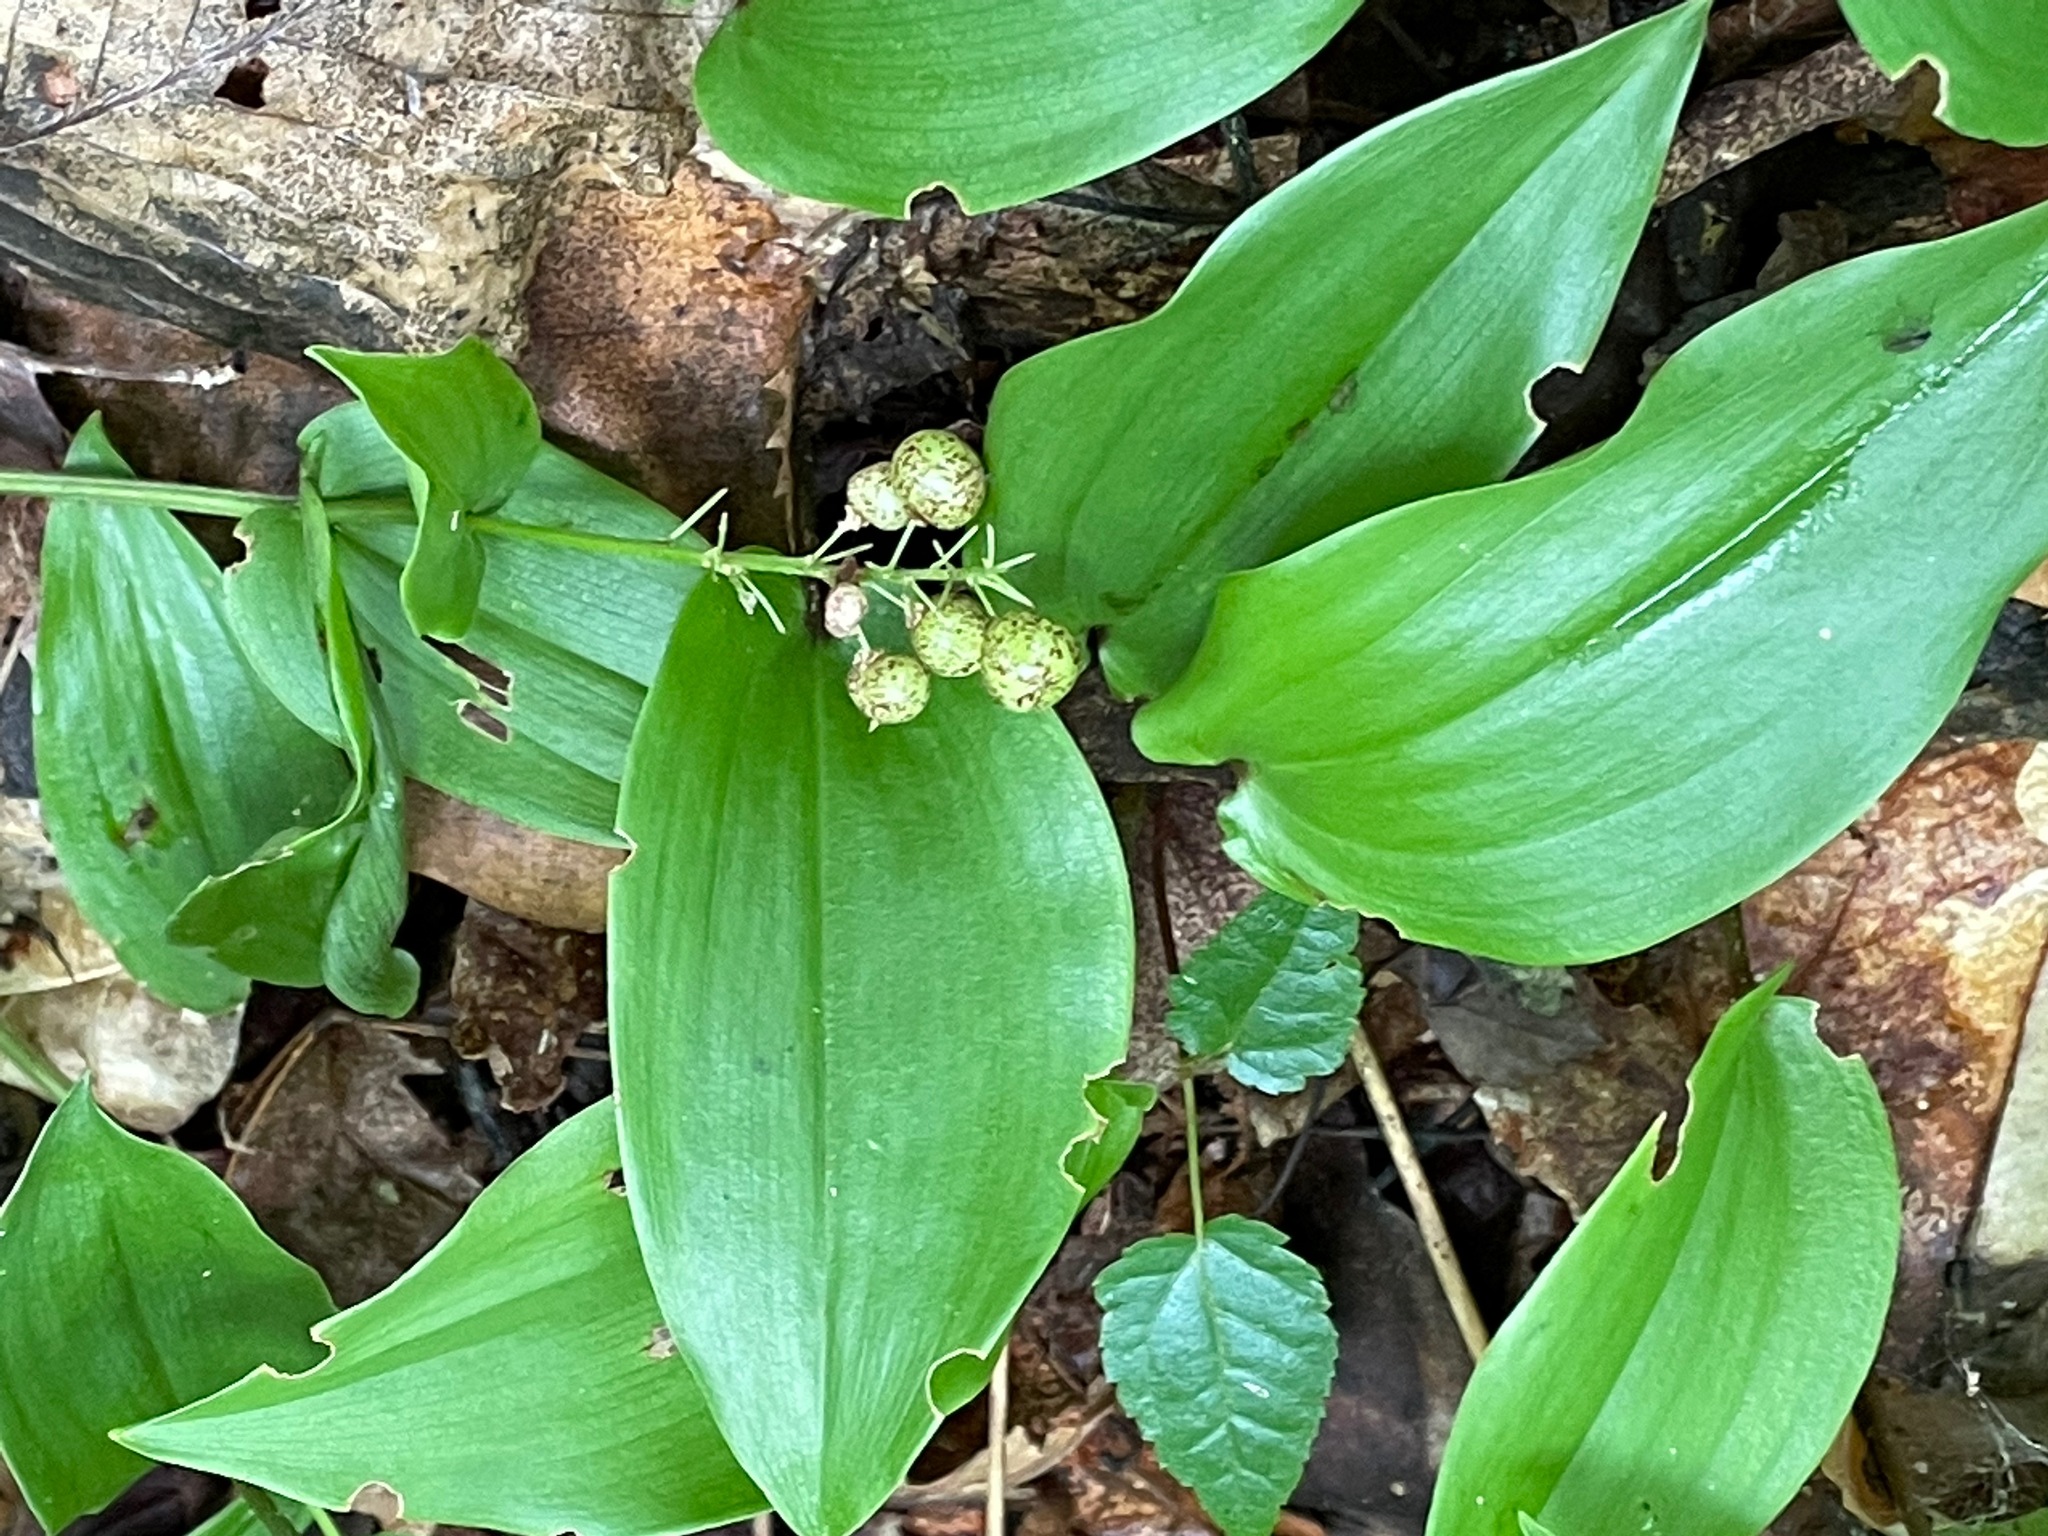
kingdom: Plantae
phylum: Tracheophyta
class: Liliopsida
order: Asparagales
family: Asparagaceae
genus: Maianthemum
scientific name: Maianthemum canadense
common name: False lily-of-the-valley
